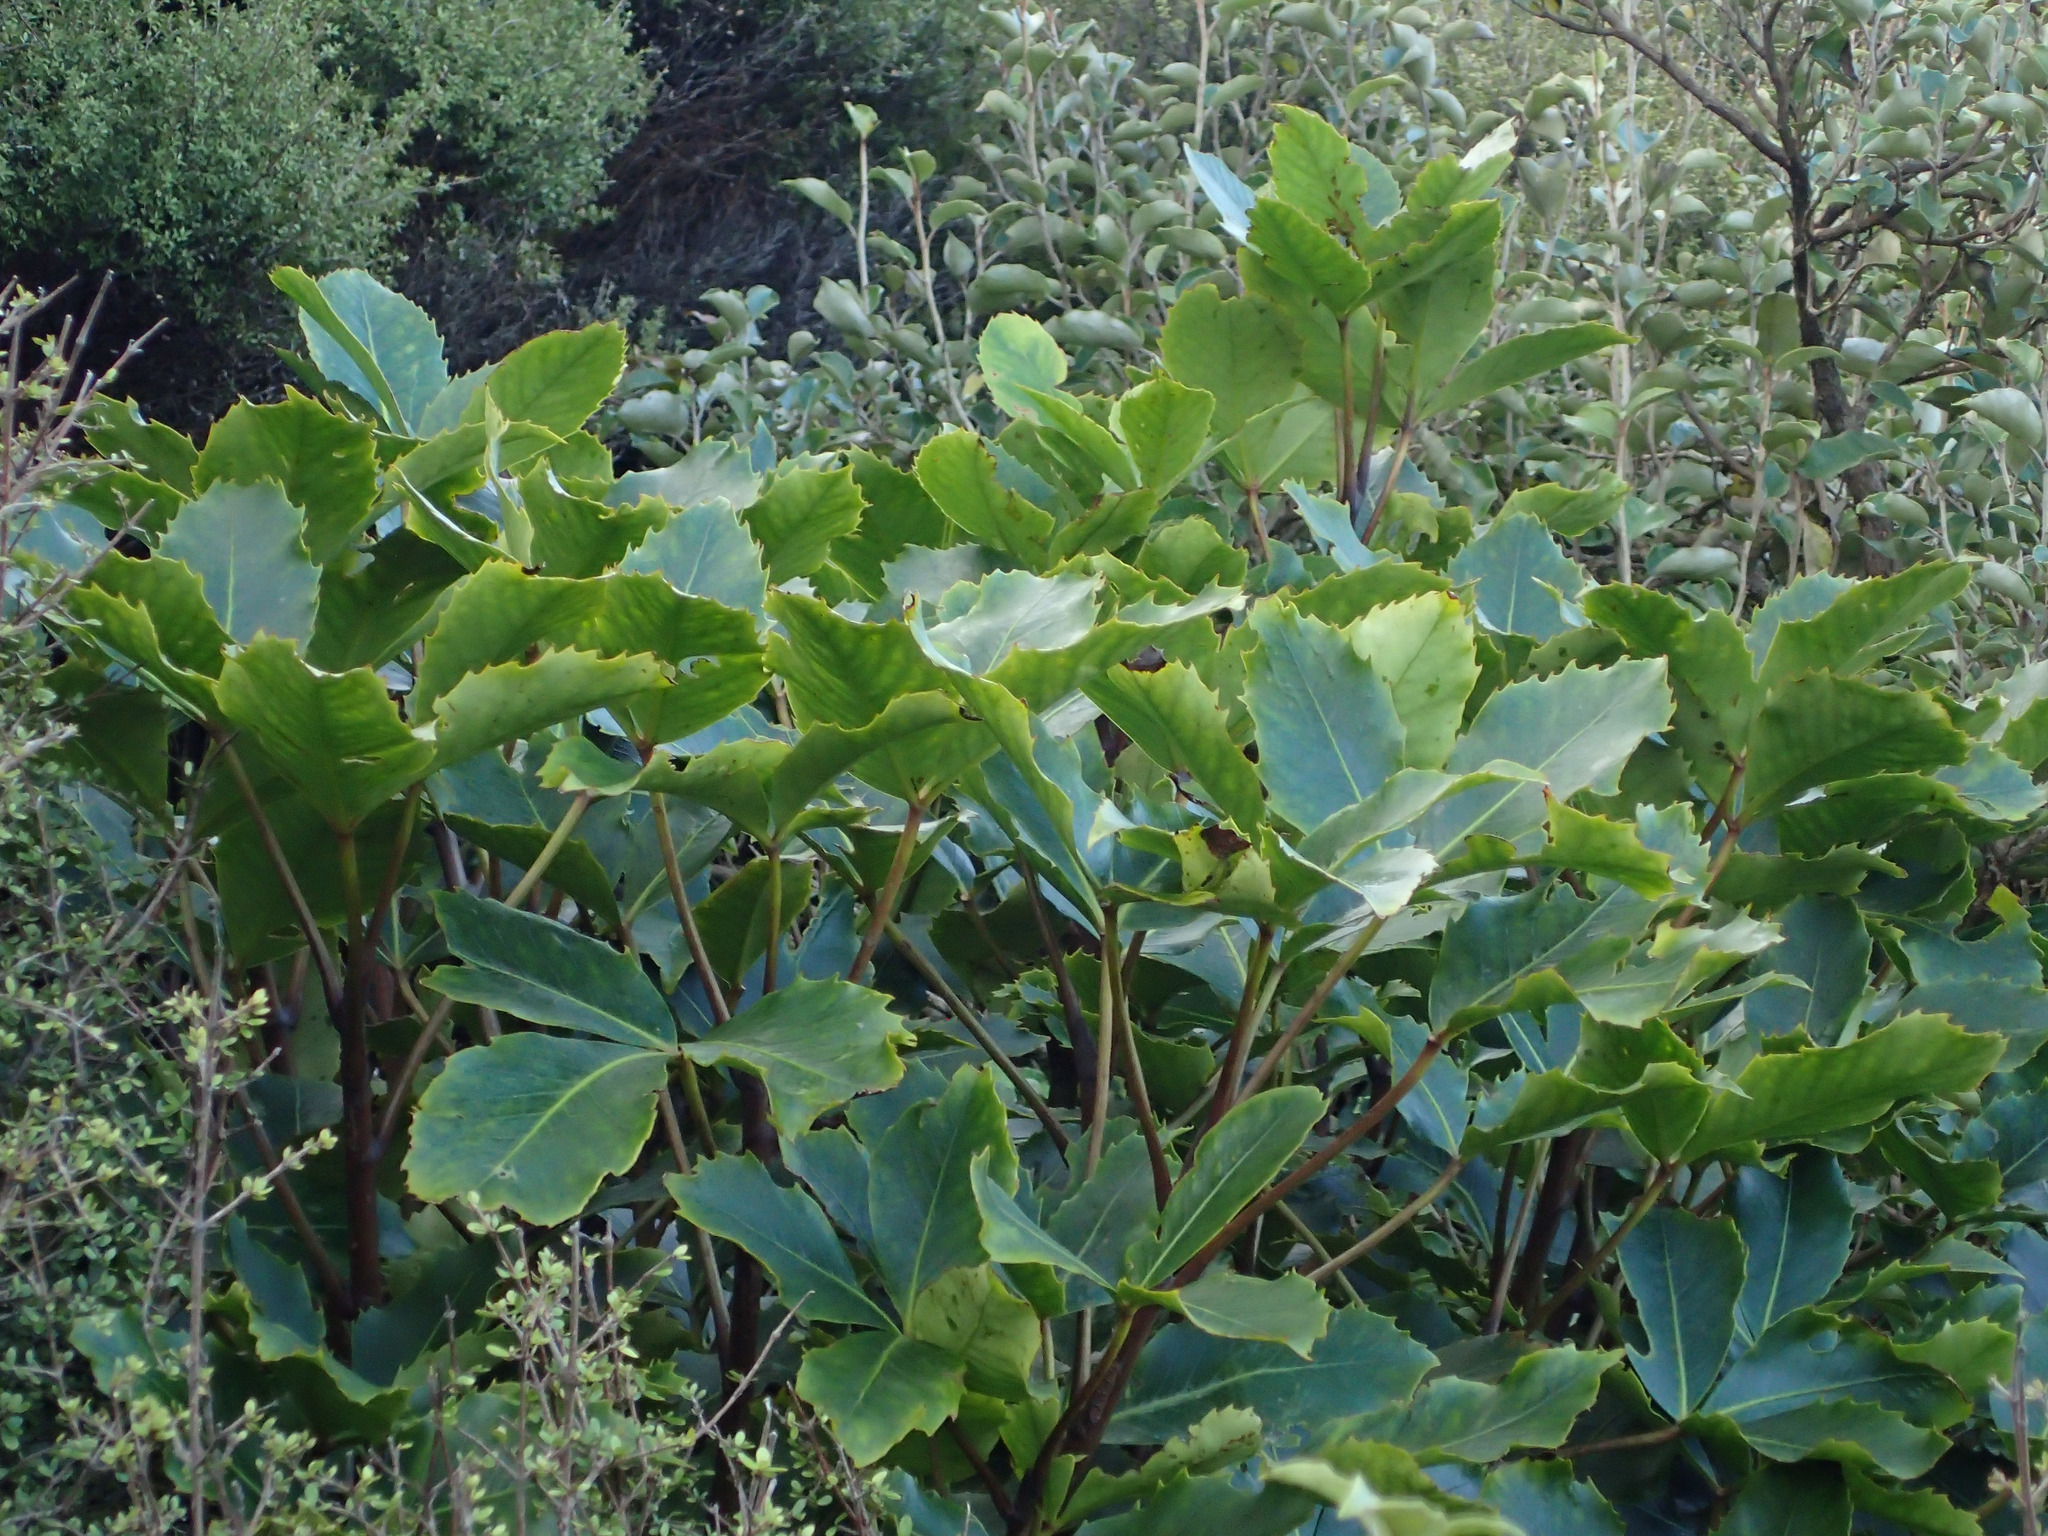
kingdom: Plantae
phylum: Tracheophyta
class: Magnoliopsida
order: Apiales
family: Araliaceae
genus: Neopanax
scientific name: Neopanax colensoi
